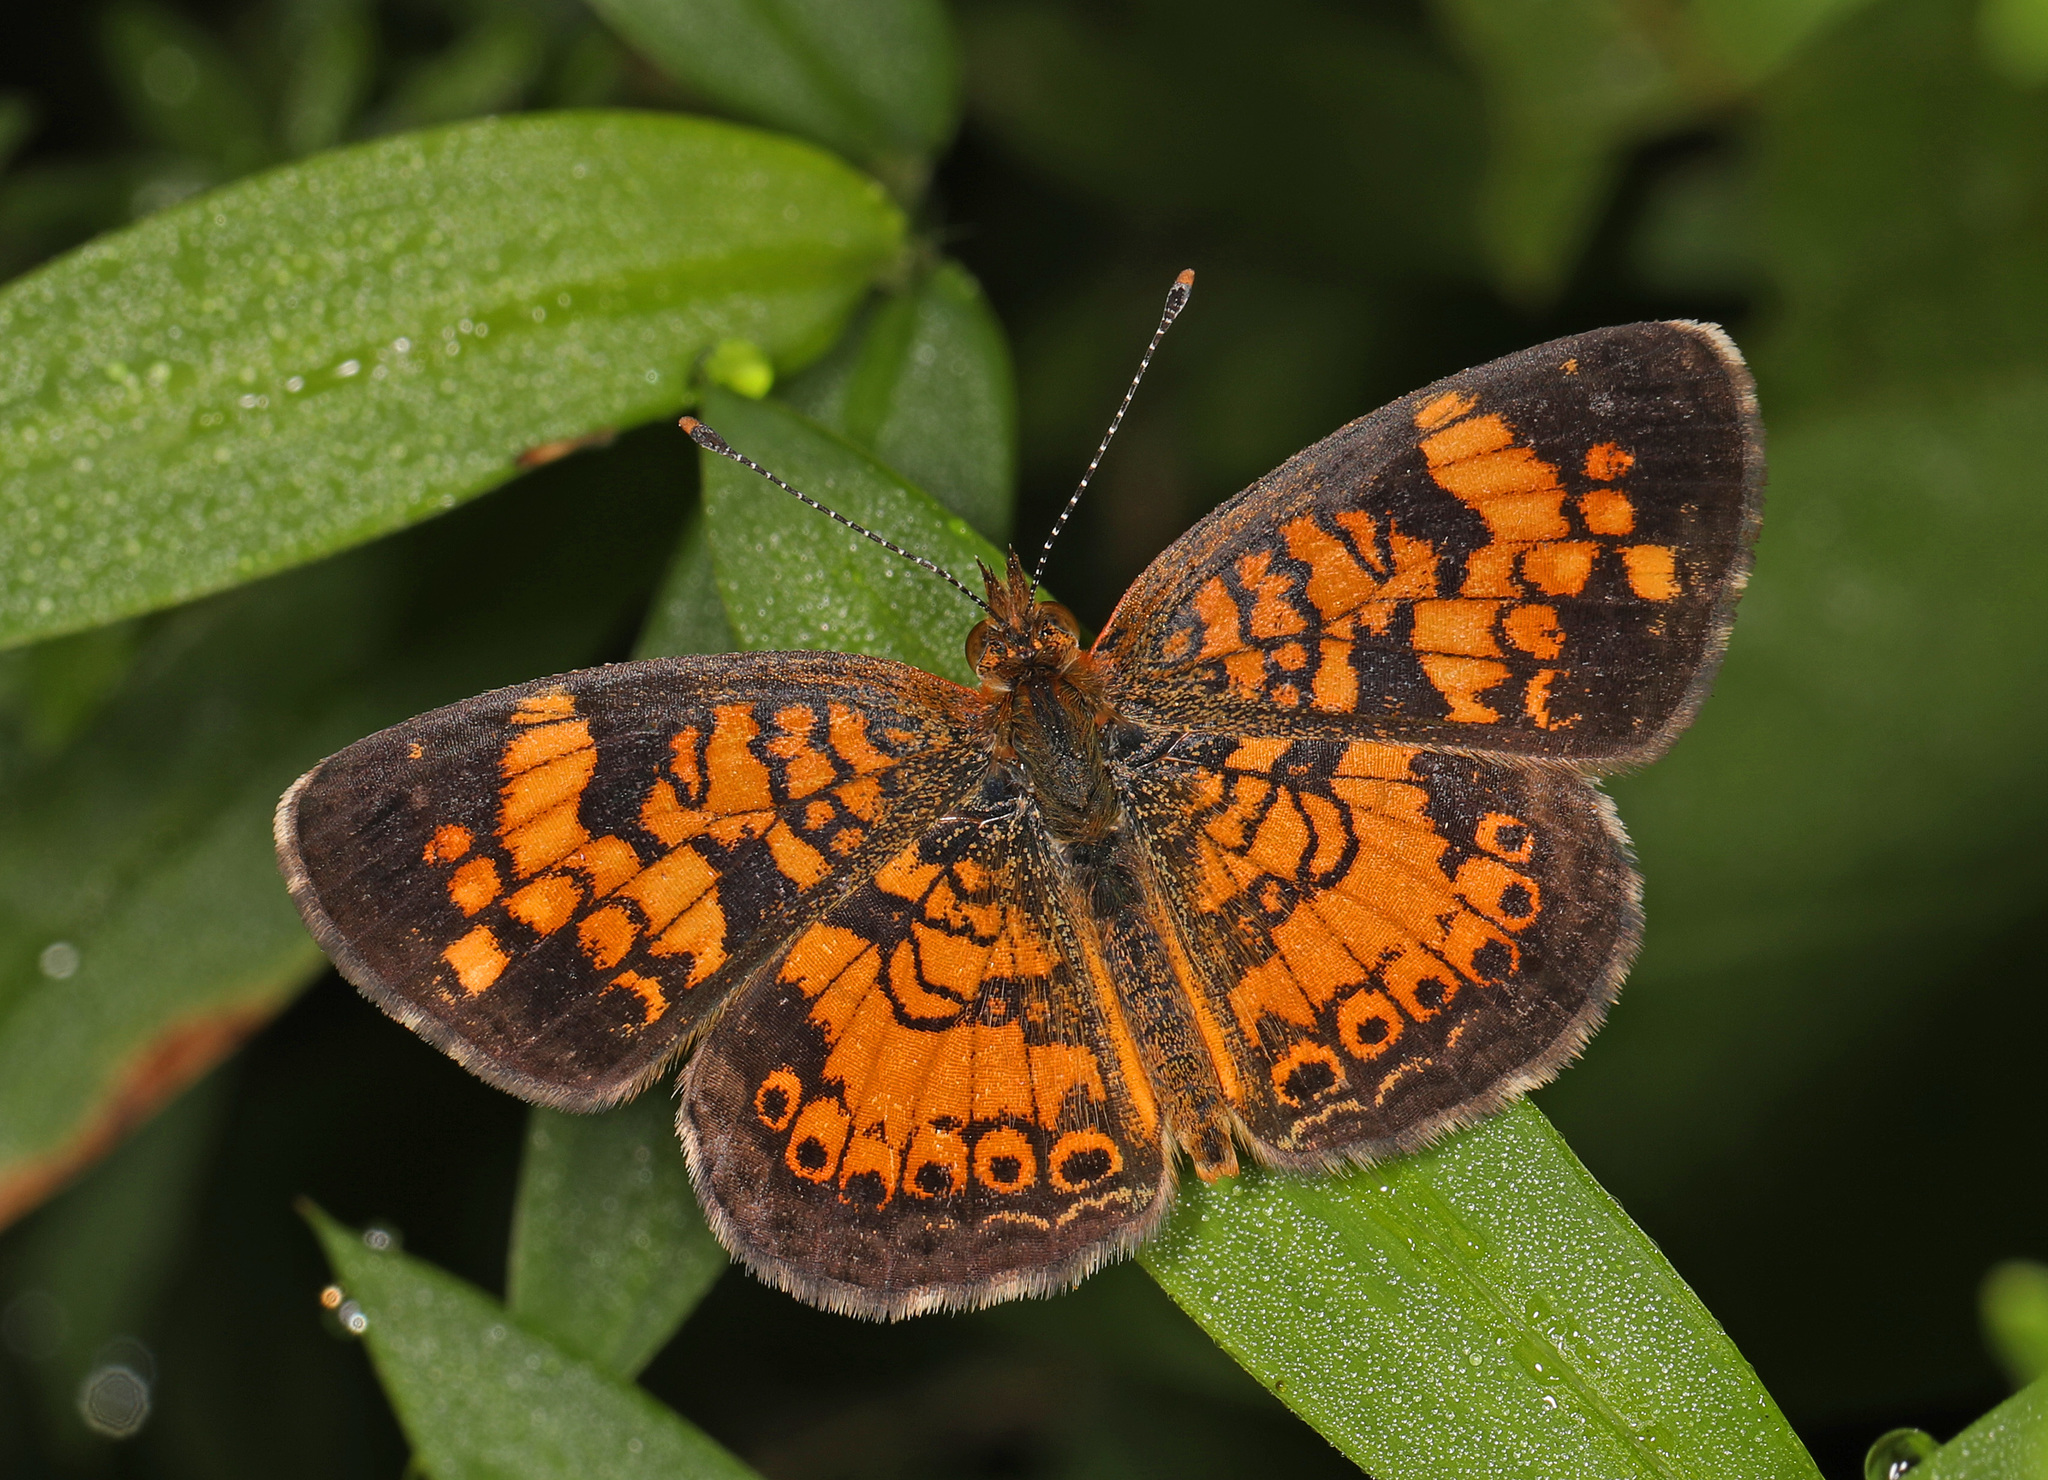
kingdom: Animalia
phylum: Arthropoda
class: Insecta
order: Lepidoptera
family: Nymphalidae
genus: Phyciodes
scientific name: Phyciodes tharos
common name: Pearl crescent
